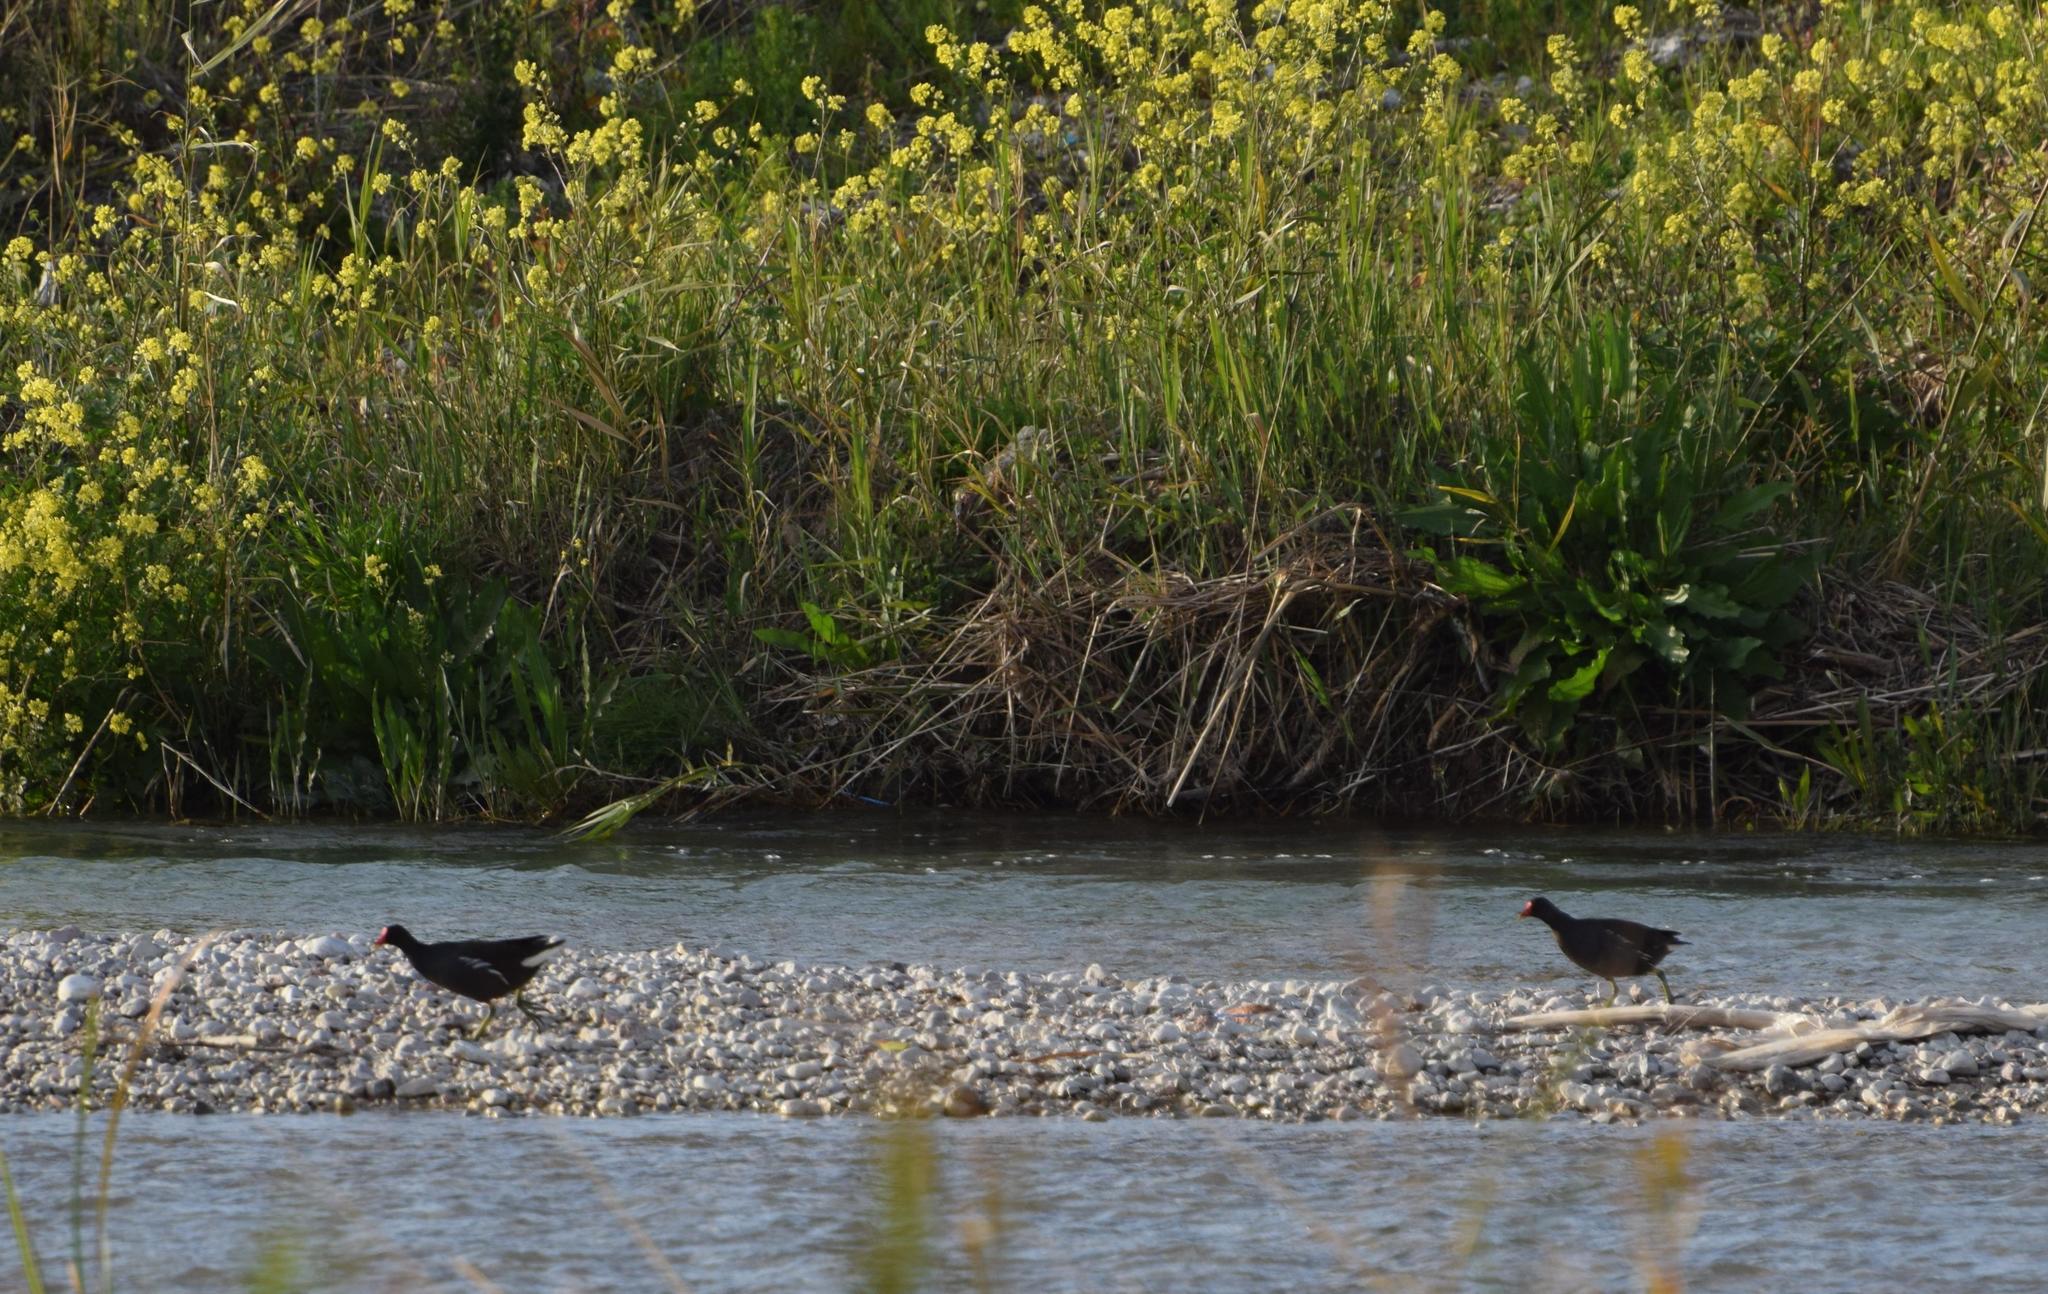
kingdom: Animalia
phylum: Chordata
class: Aves
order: Gruiformes
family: Rallidae
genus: Gallinula
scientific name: Gallinula chloropus
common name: Common moorhen
